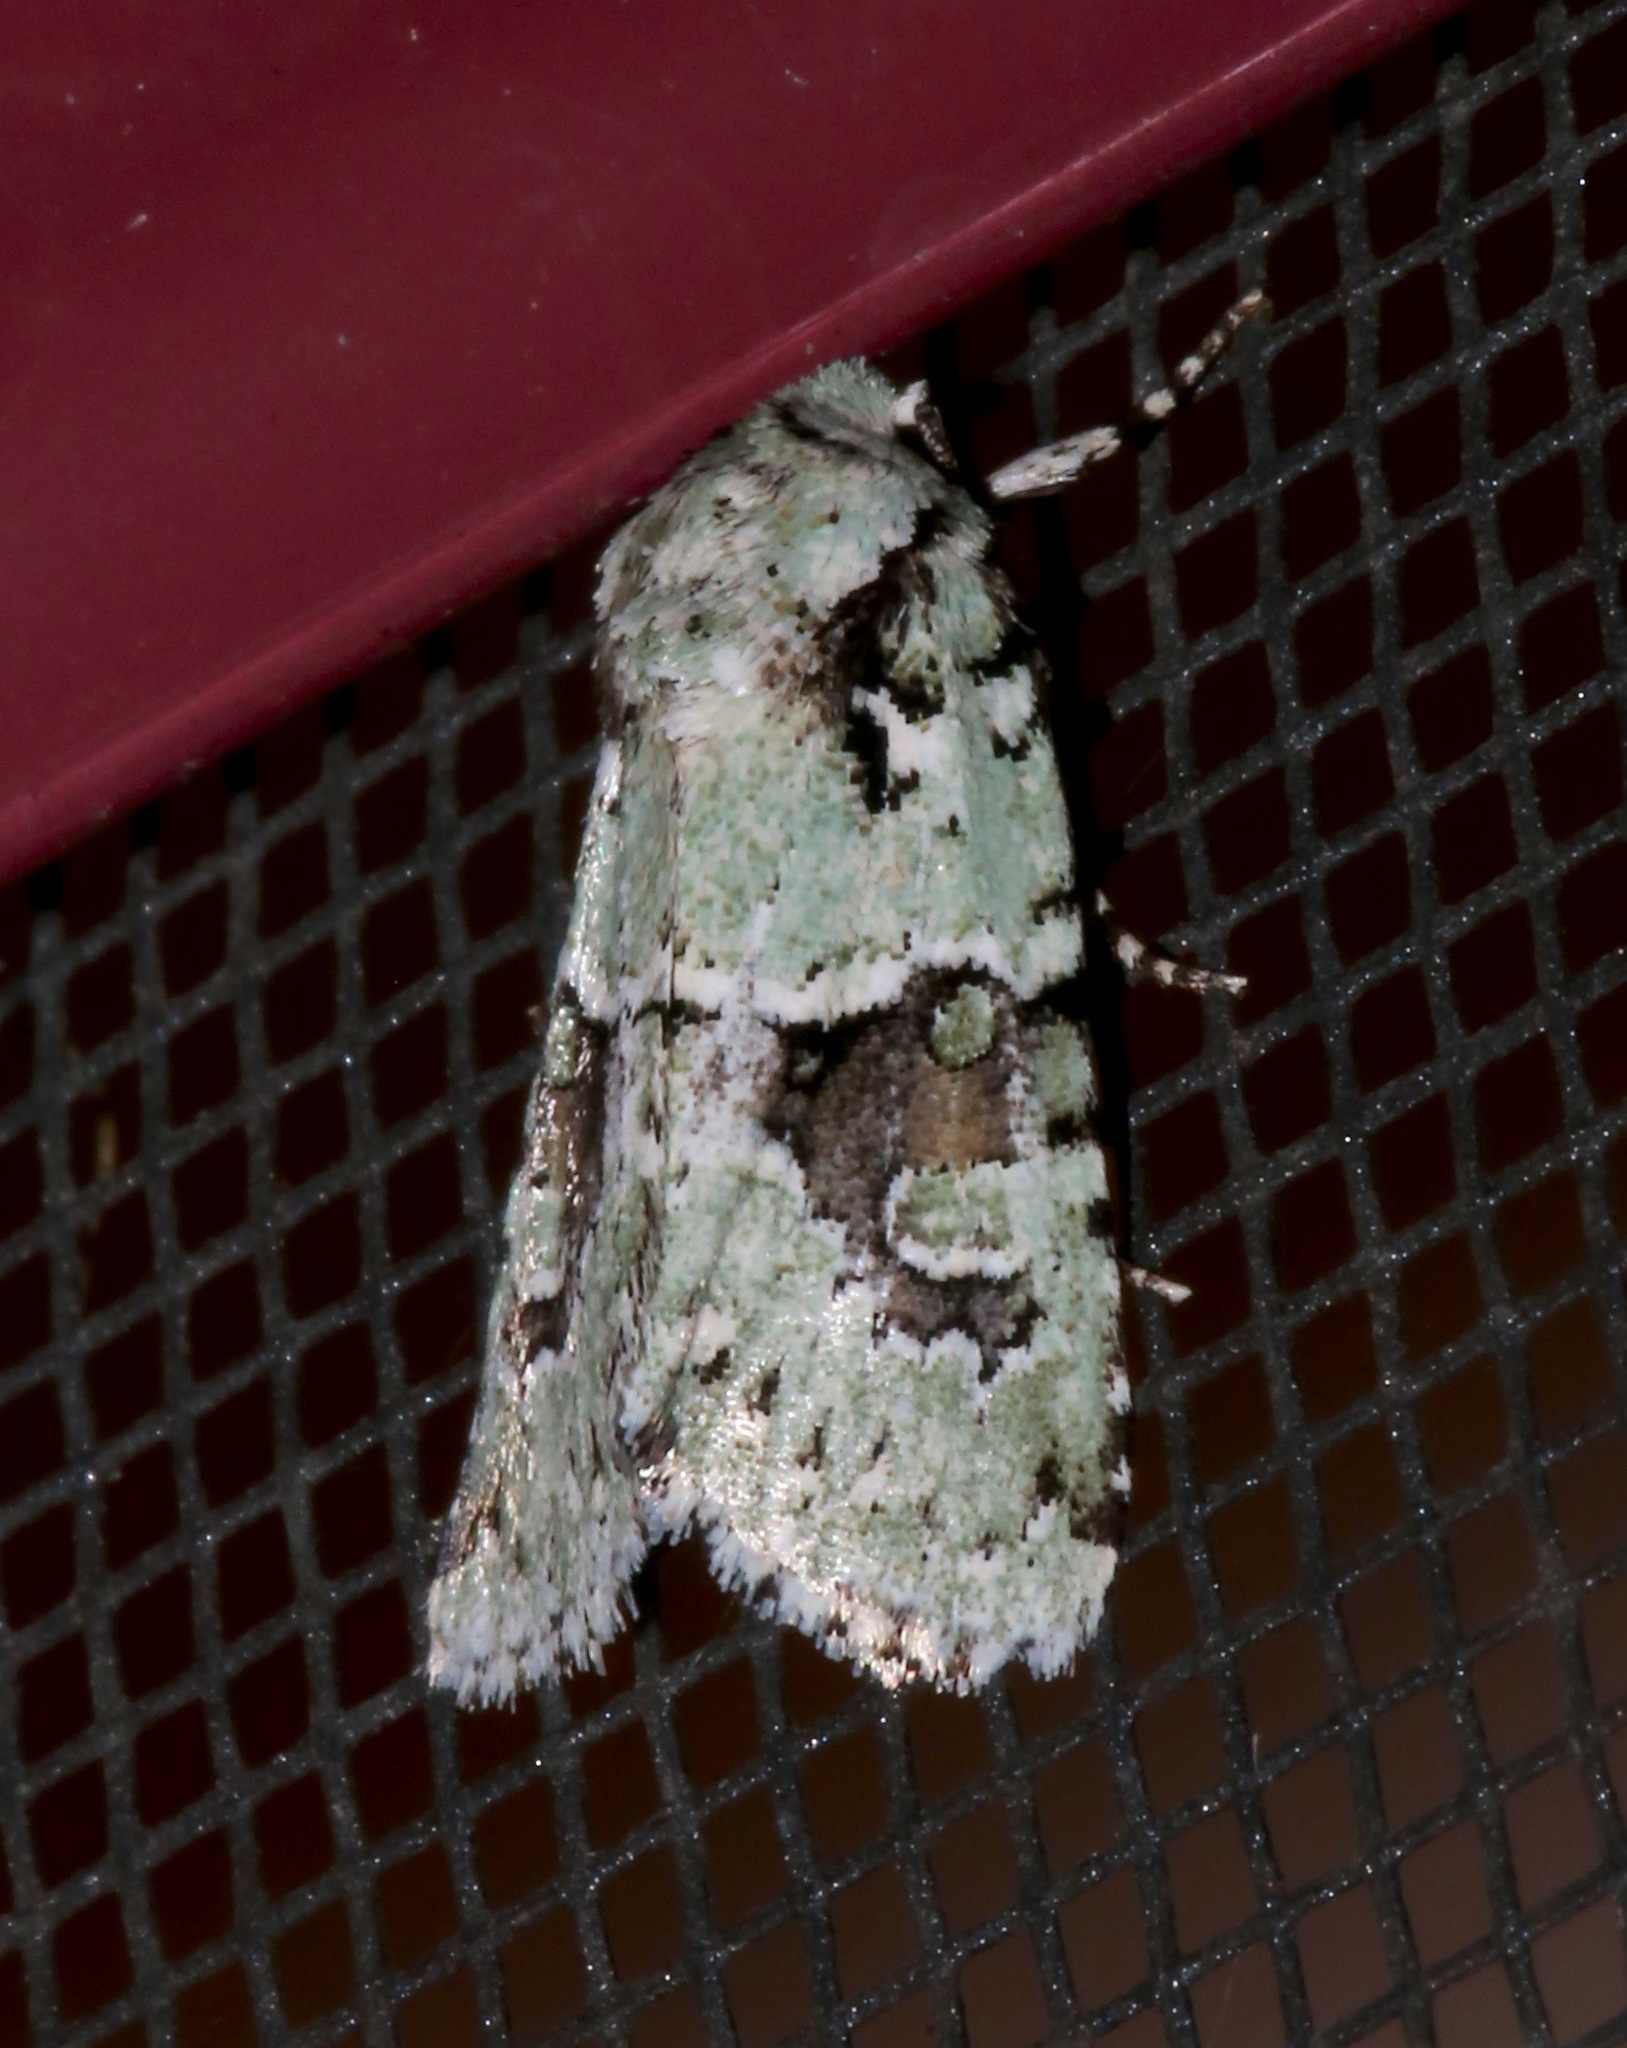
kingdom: Animalia
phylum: Arthropoda
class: Insecta
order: Lepidoptera
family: Noctuidae
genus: Lacinipolia
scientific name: Lacinipolia implicata
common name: Implicit arches
